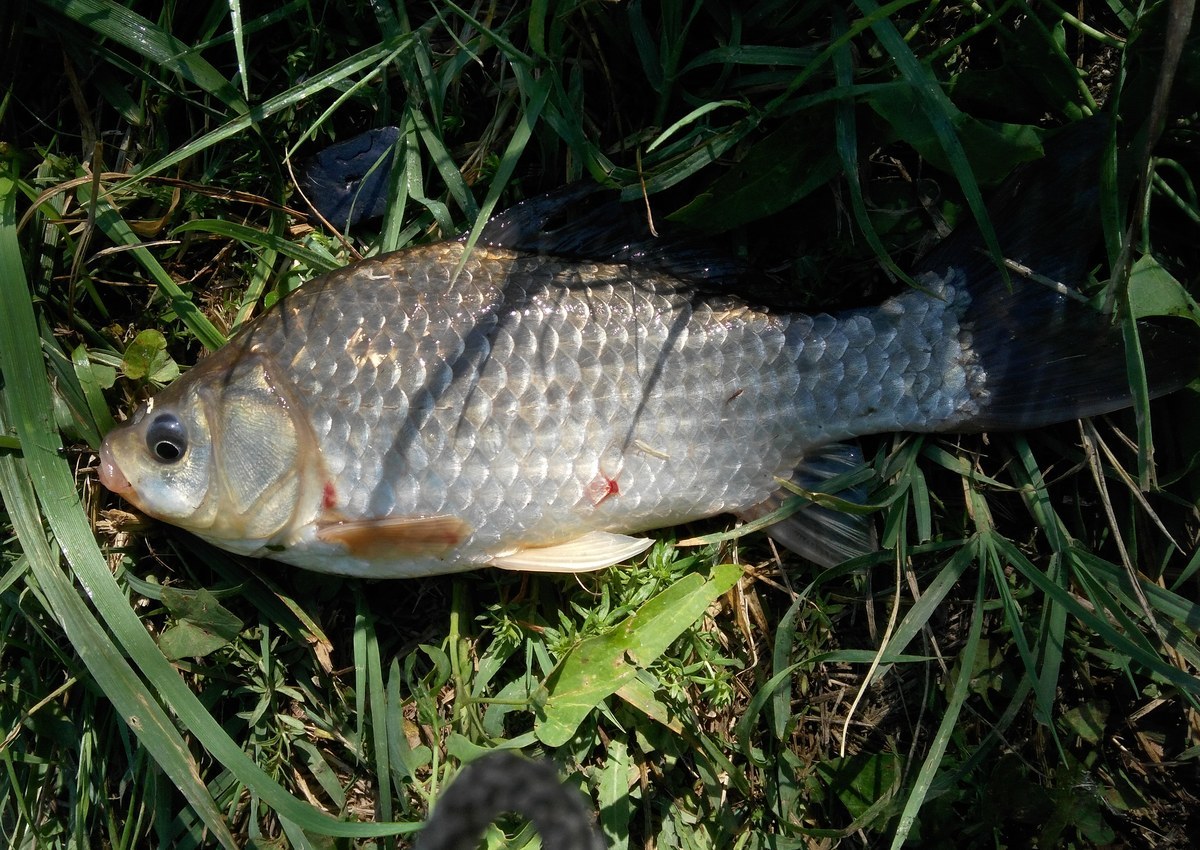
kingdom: Animalia
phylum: Chordata
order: Cypriniformes
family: Cyprinidae
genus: Carassius
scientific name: Carassius gibelio
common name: Prussian carp
